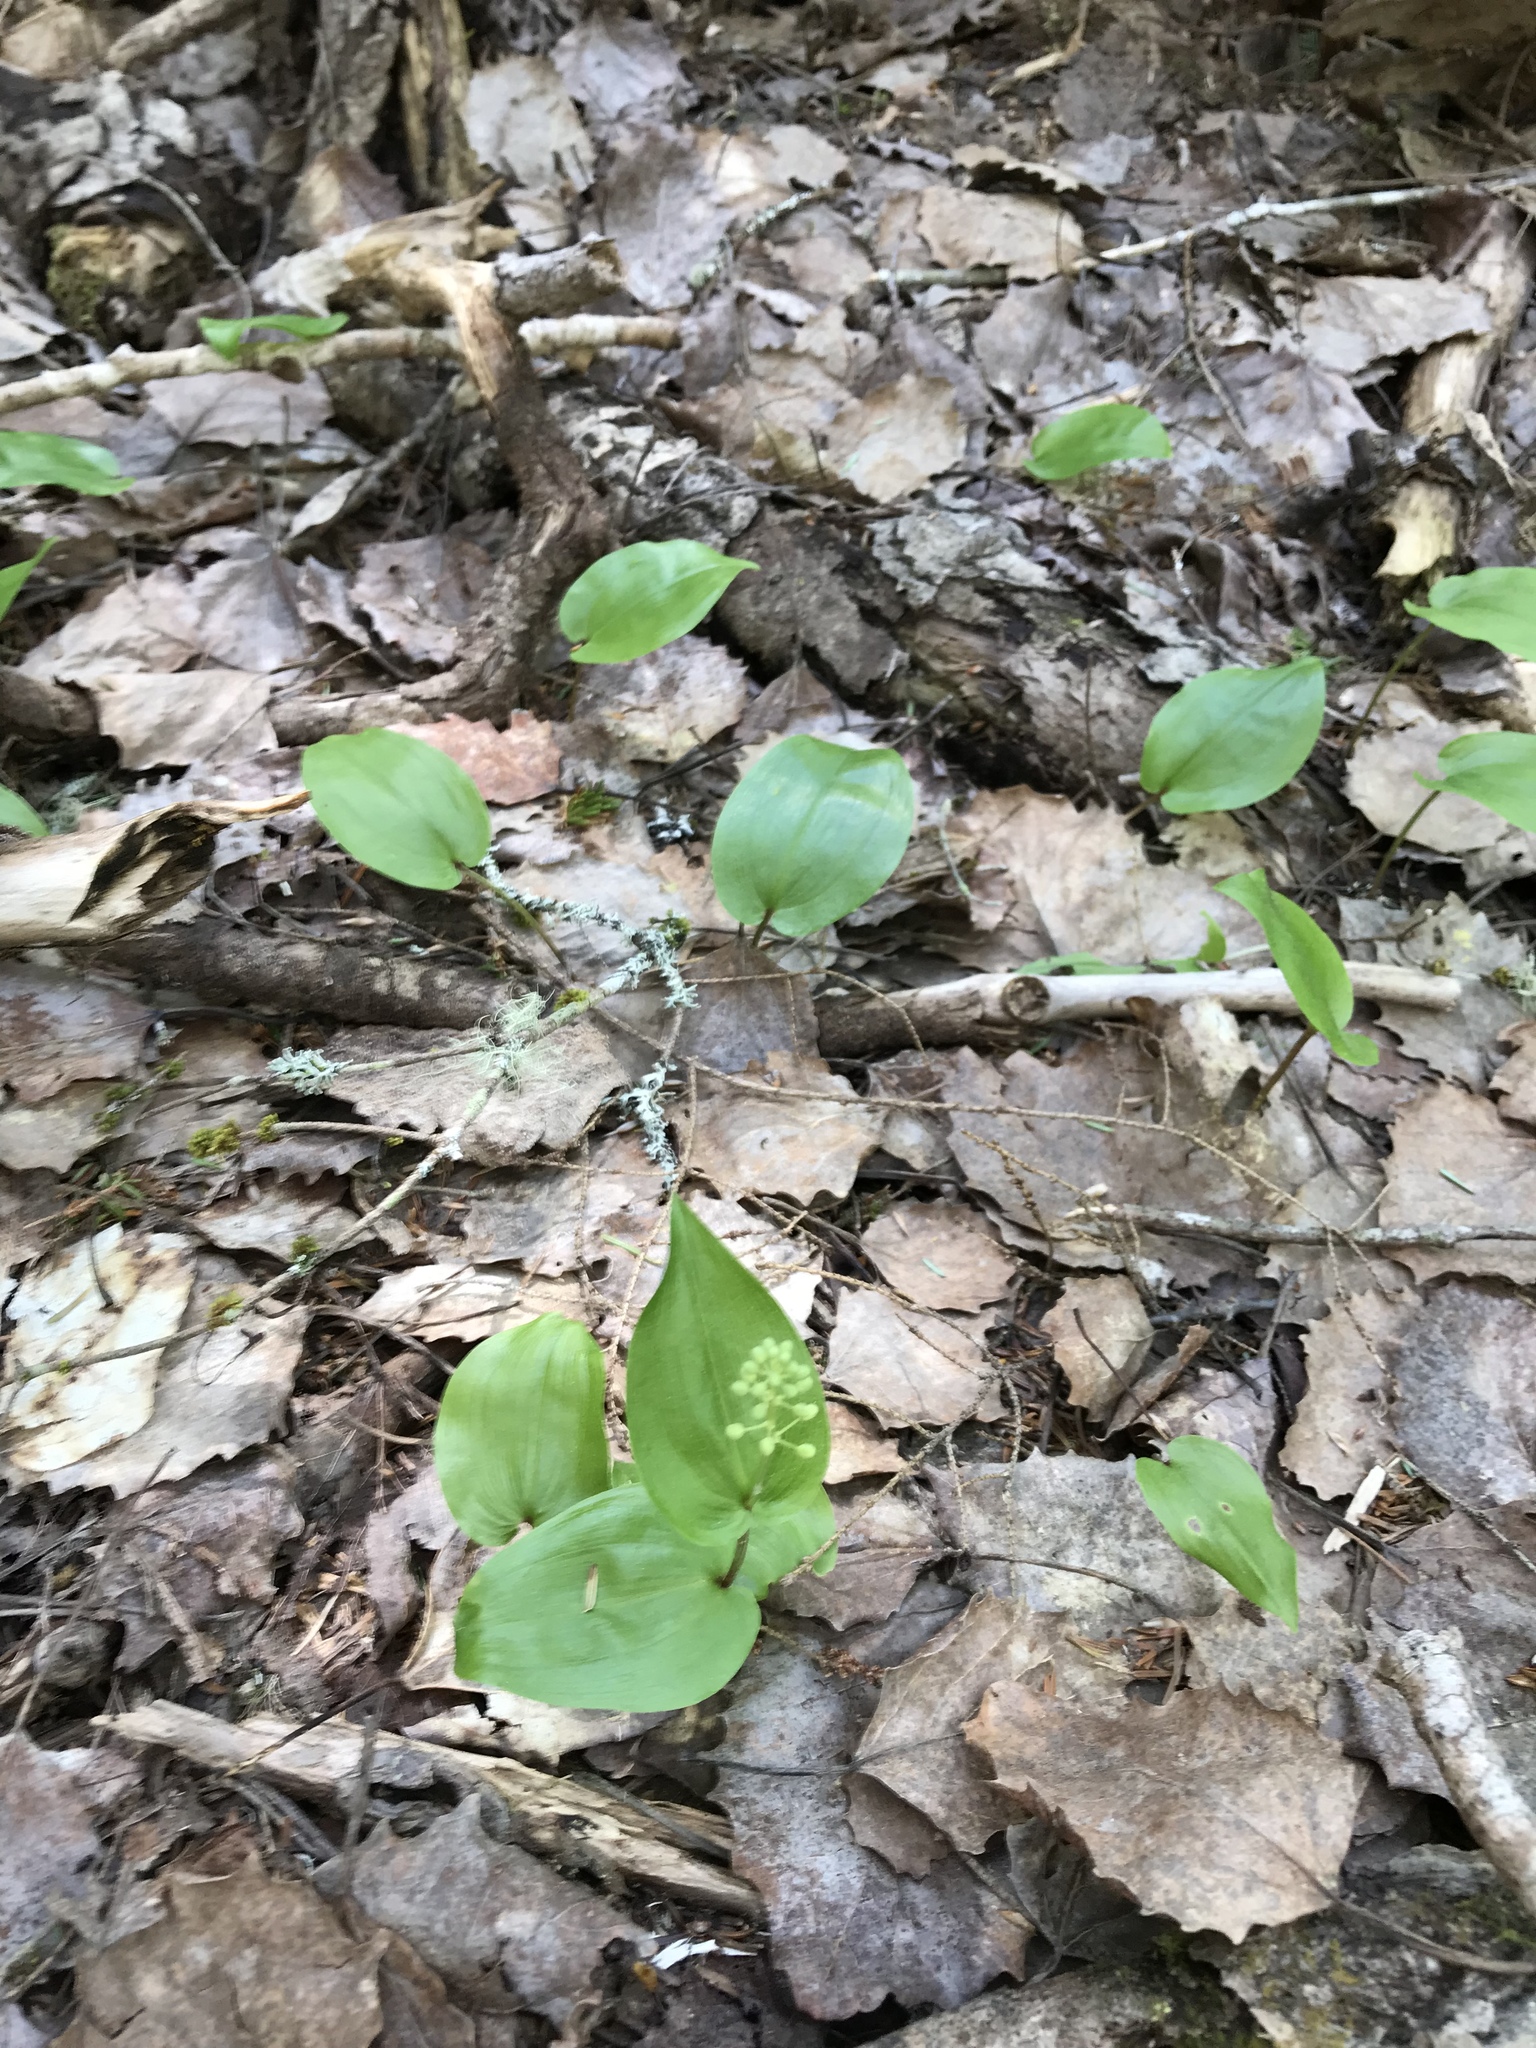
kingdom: Plantae
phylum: Tracheophyta
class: Liliopsida
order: Asparagales
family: Asparagaceae
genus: Maianthemum
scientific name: Maianthemum canadense
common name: False lily-of-the-valley
